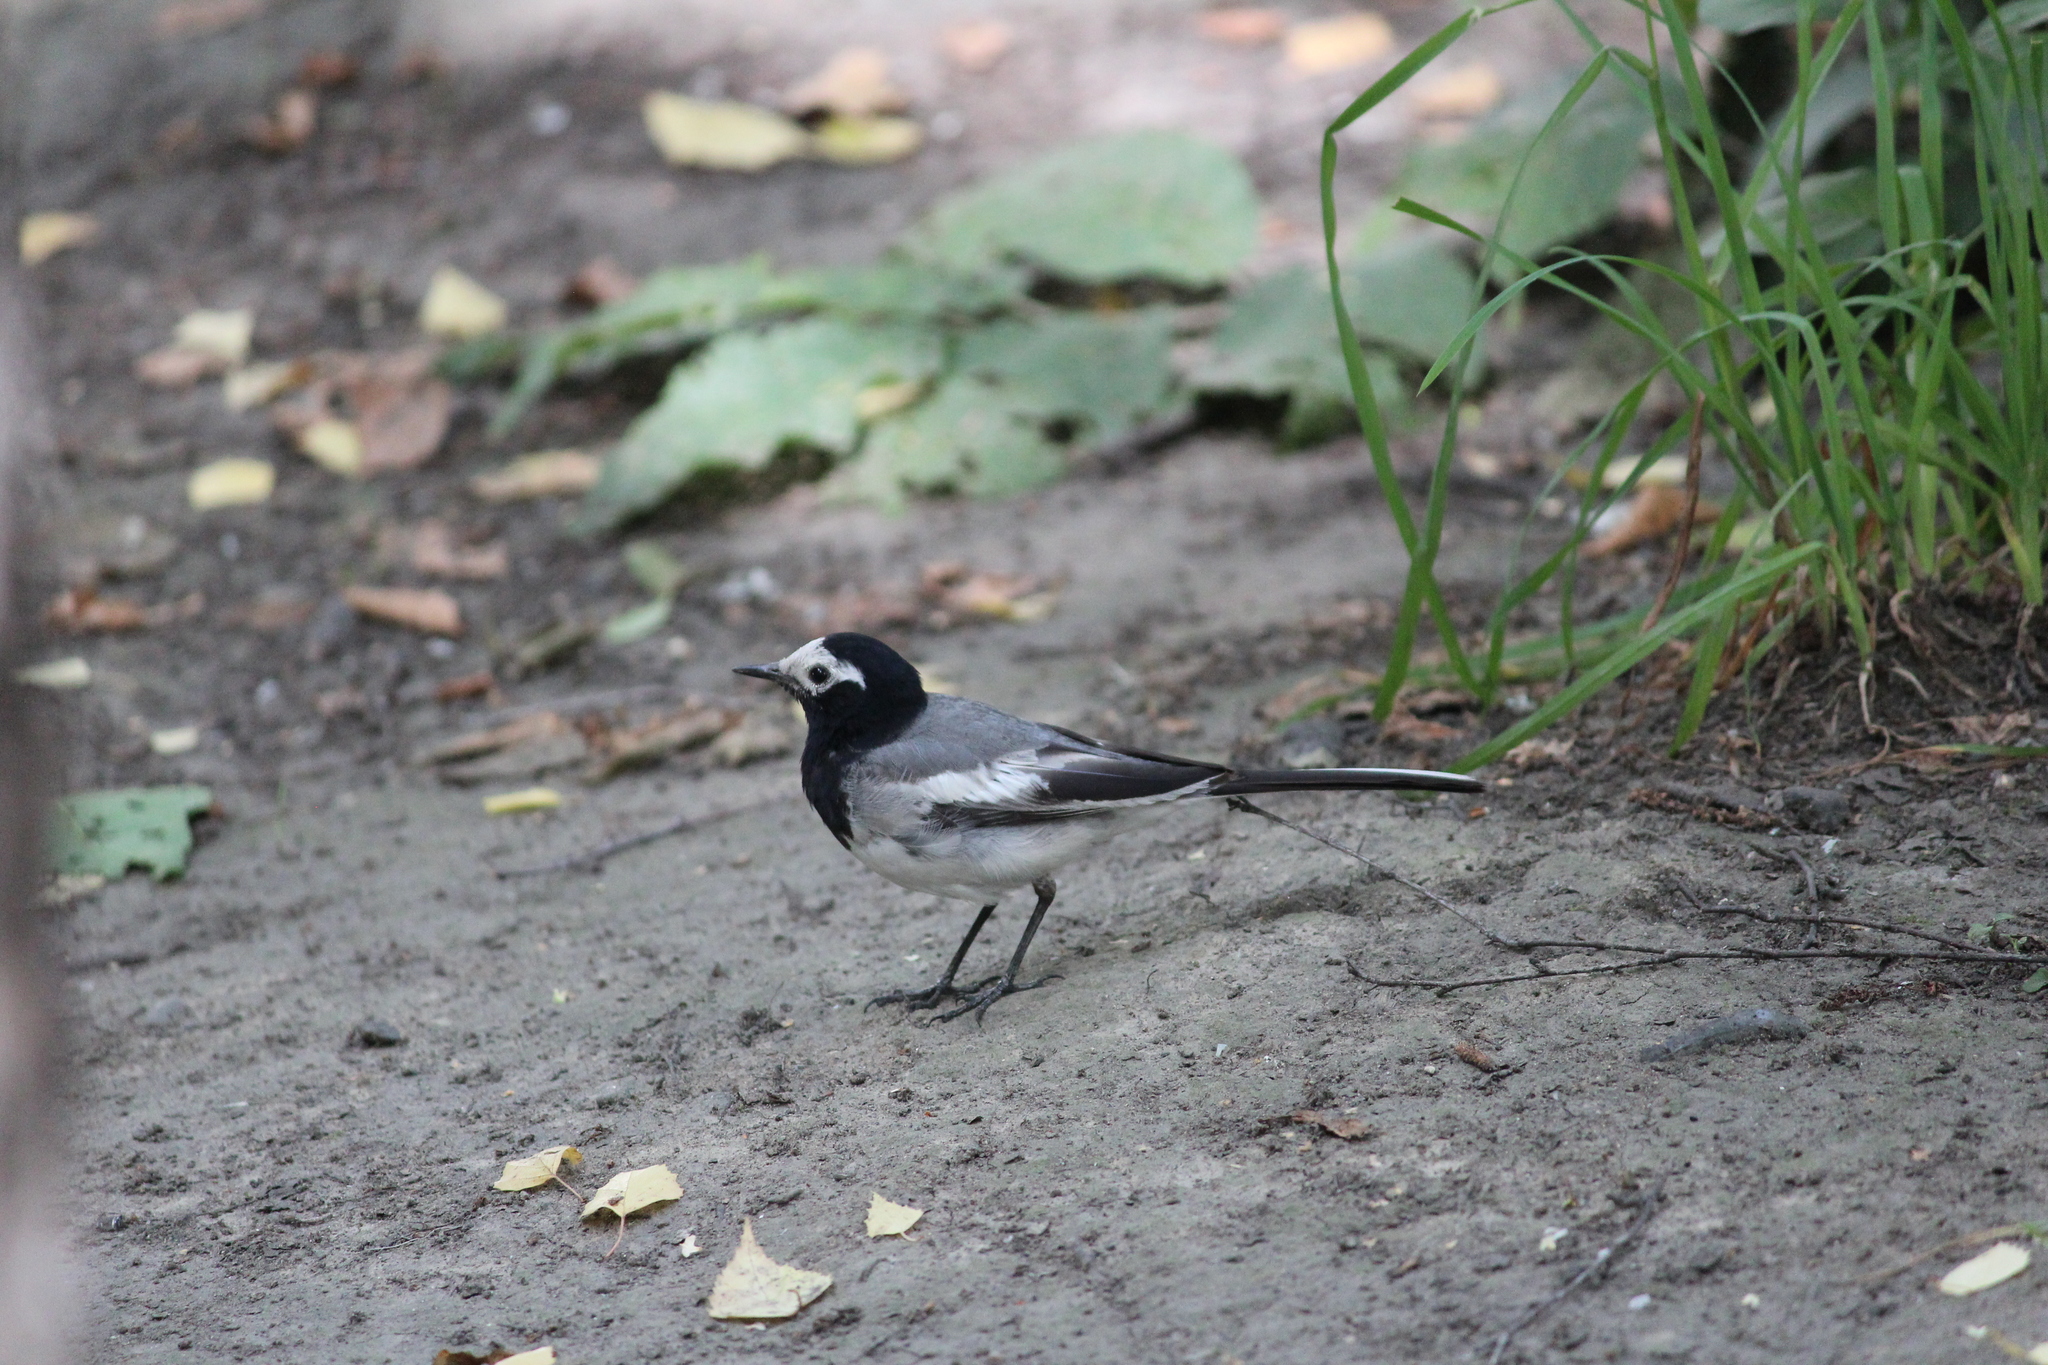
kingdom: Animalia
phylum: Chordata
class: Aves
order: Passeriformes
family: Motacillidae
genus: Motacilla
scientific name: Motacilla alba
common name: White wagtail
